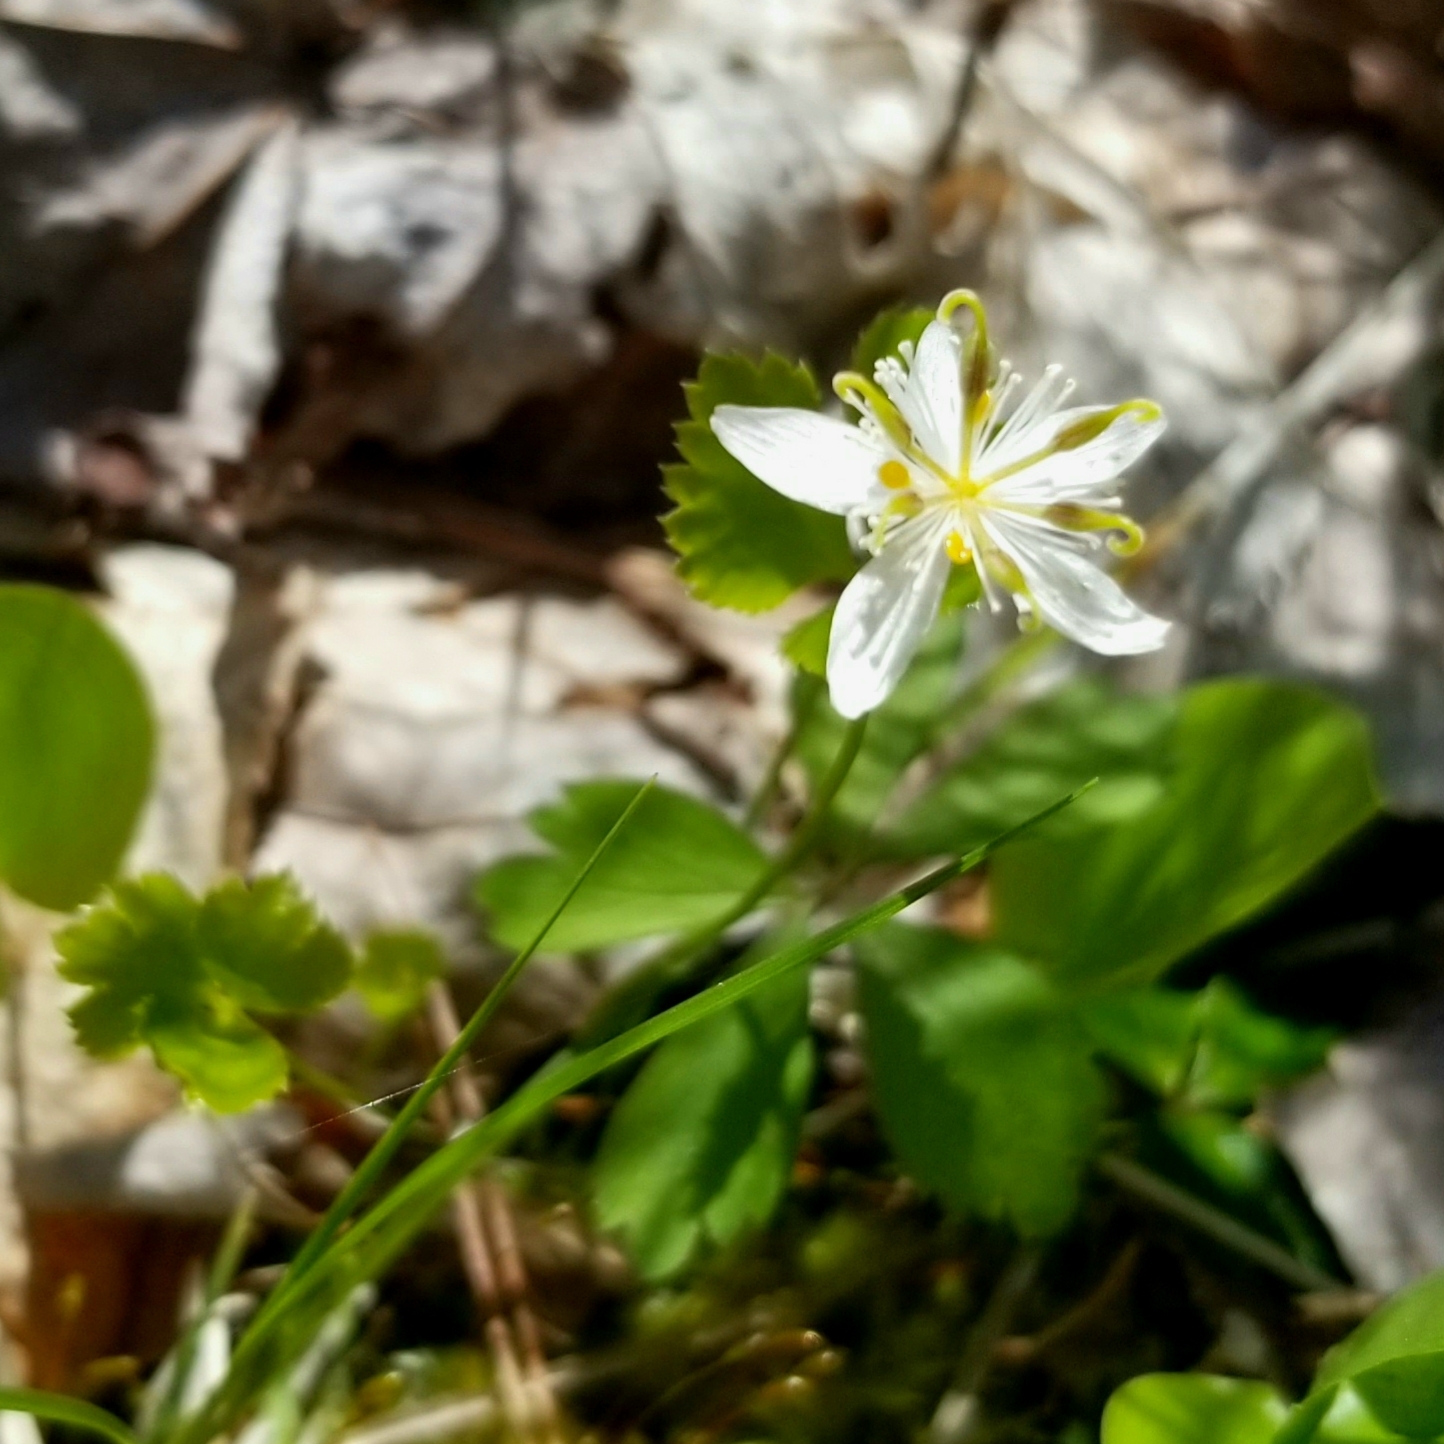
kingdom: Plantae
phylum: Tracheophyta
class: Magnoliopsida
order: Ranunculales
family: Ranunculaceae
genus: Coptis
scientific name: Coptis trifolia
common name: Canker-root
